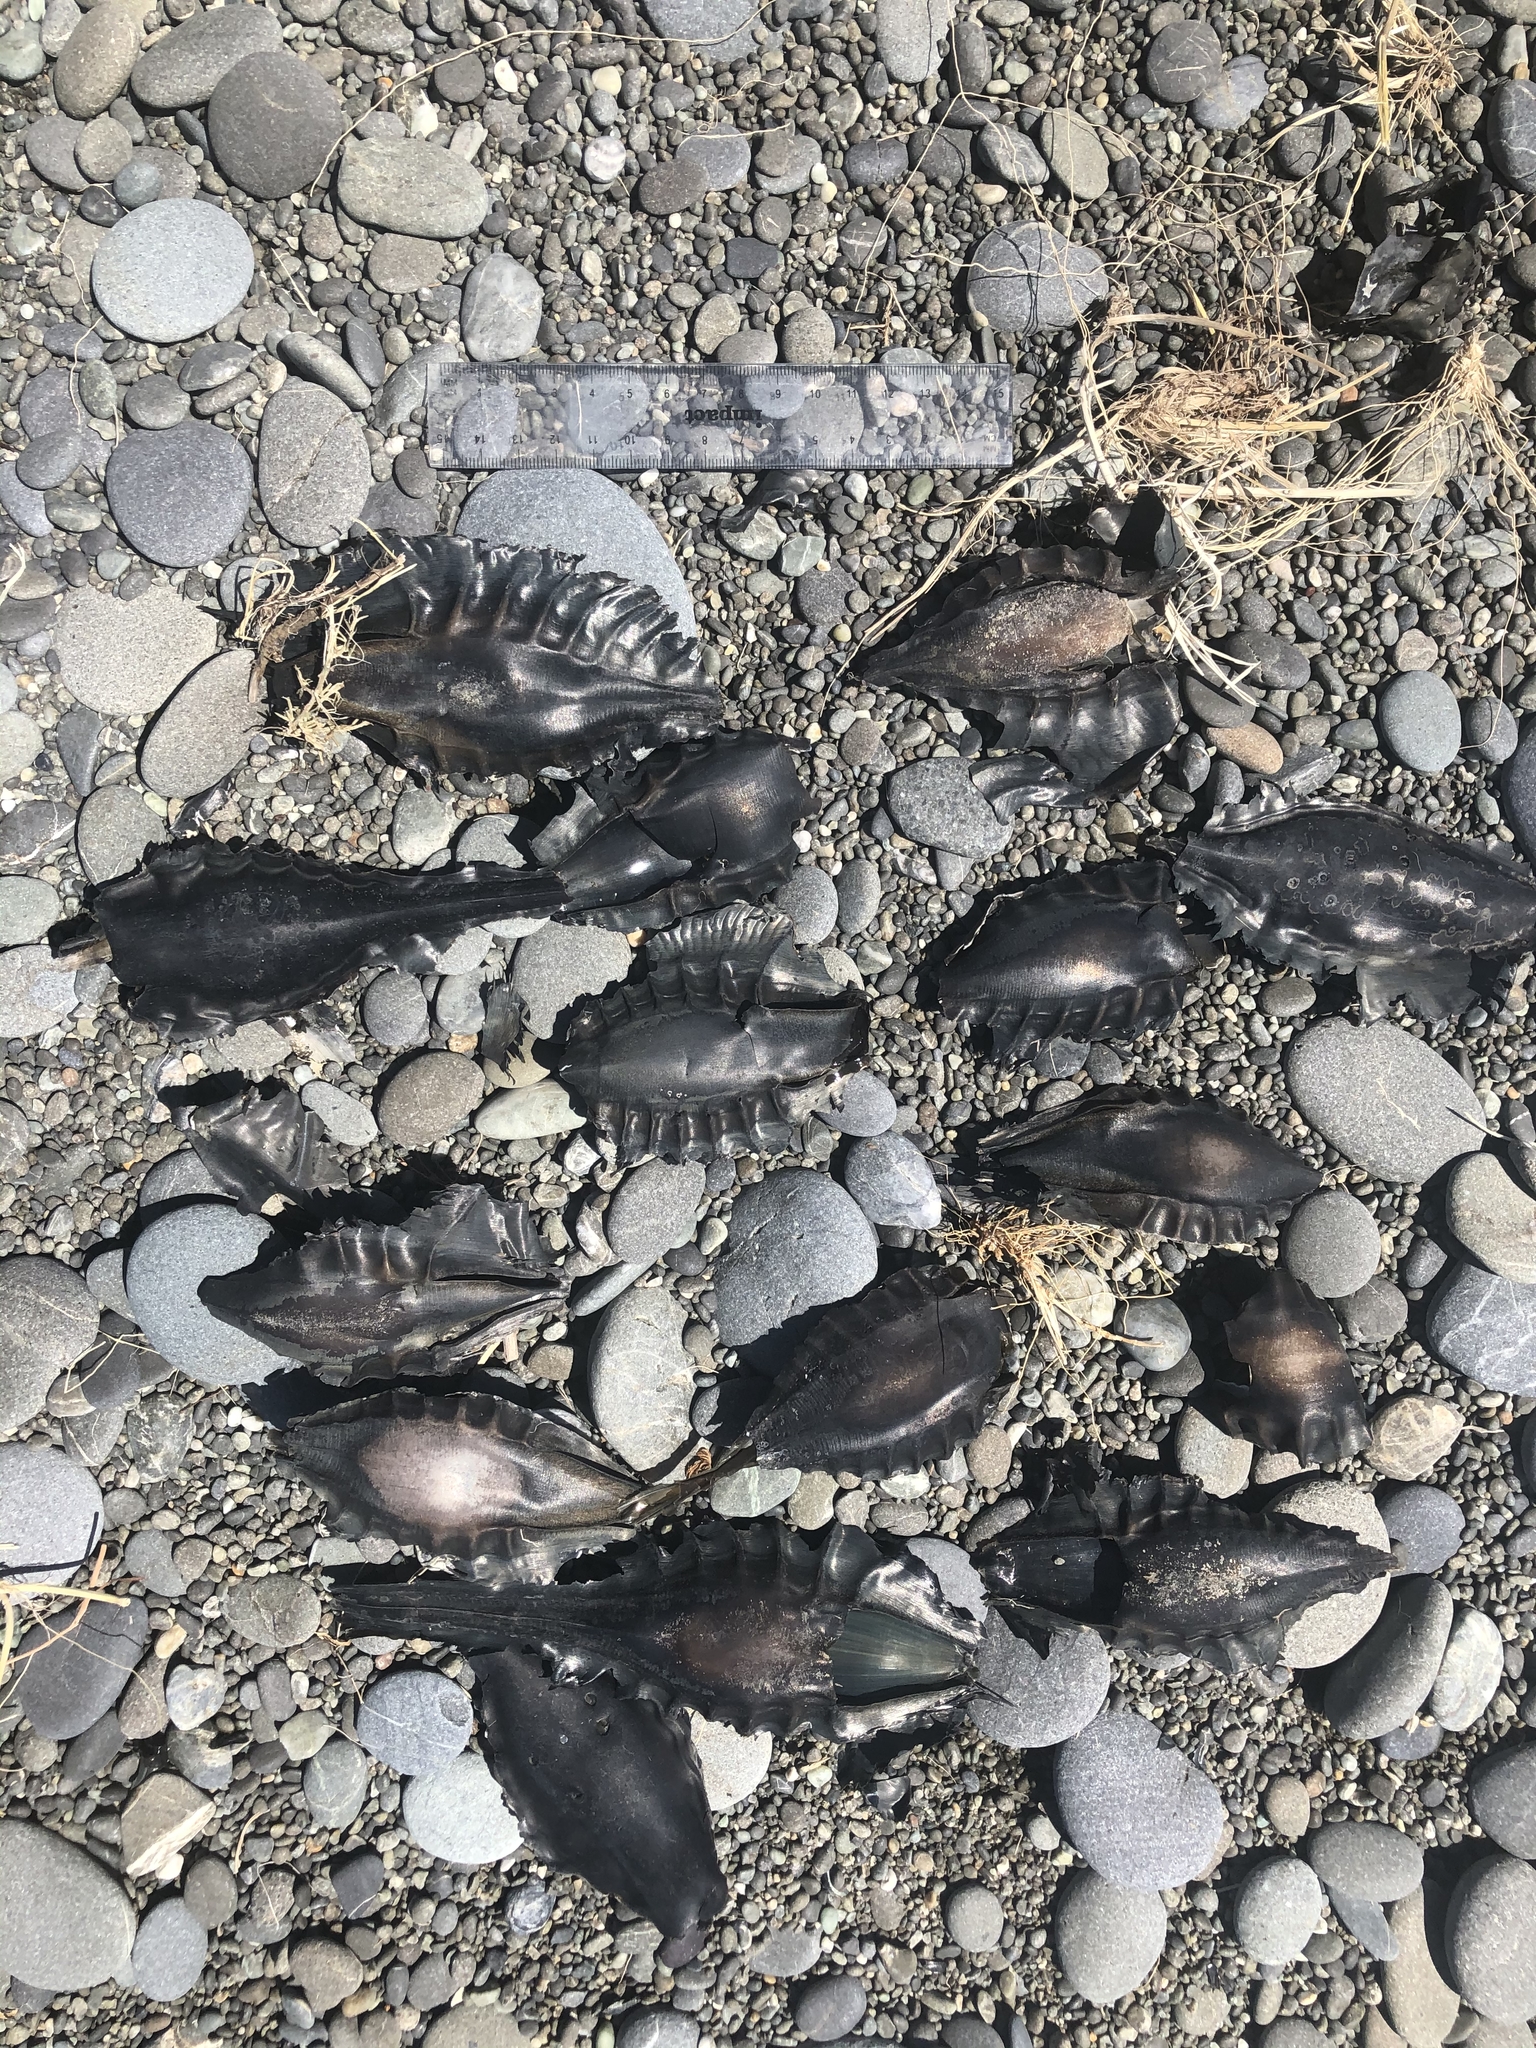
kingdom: Animalia
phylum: Chordata
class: Holocephali
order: Chimaeriformes
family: Callorhinchidae
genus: Callorhinchus
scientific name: Callorhinchus milii
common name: Elephant fish
